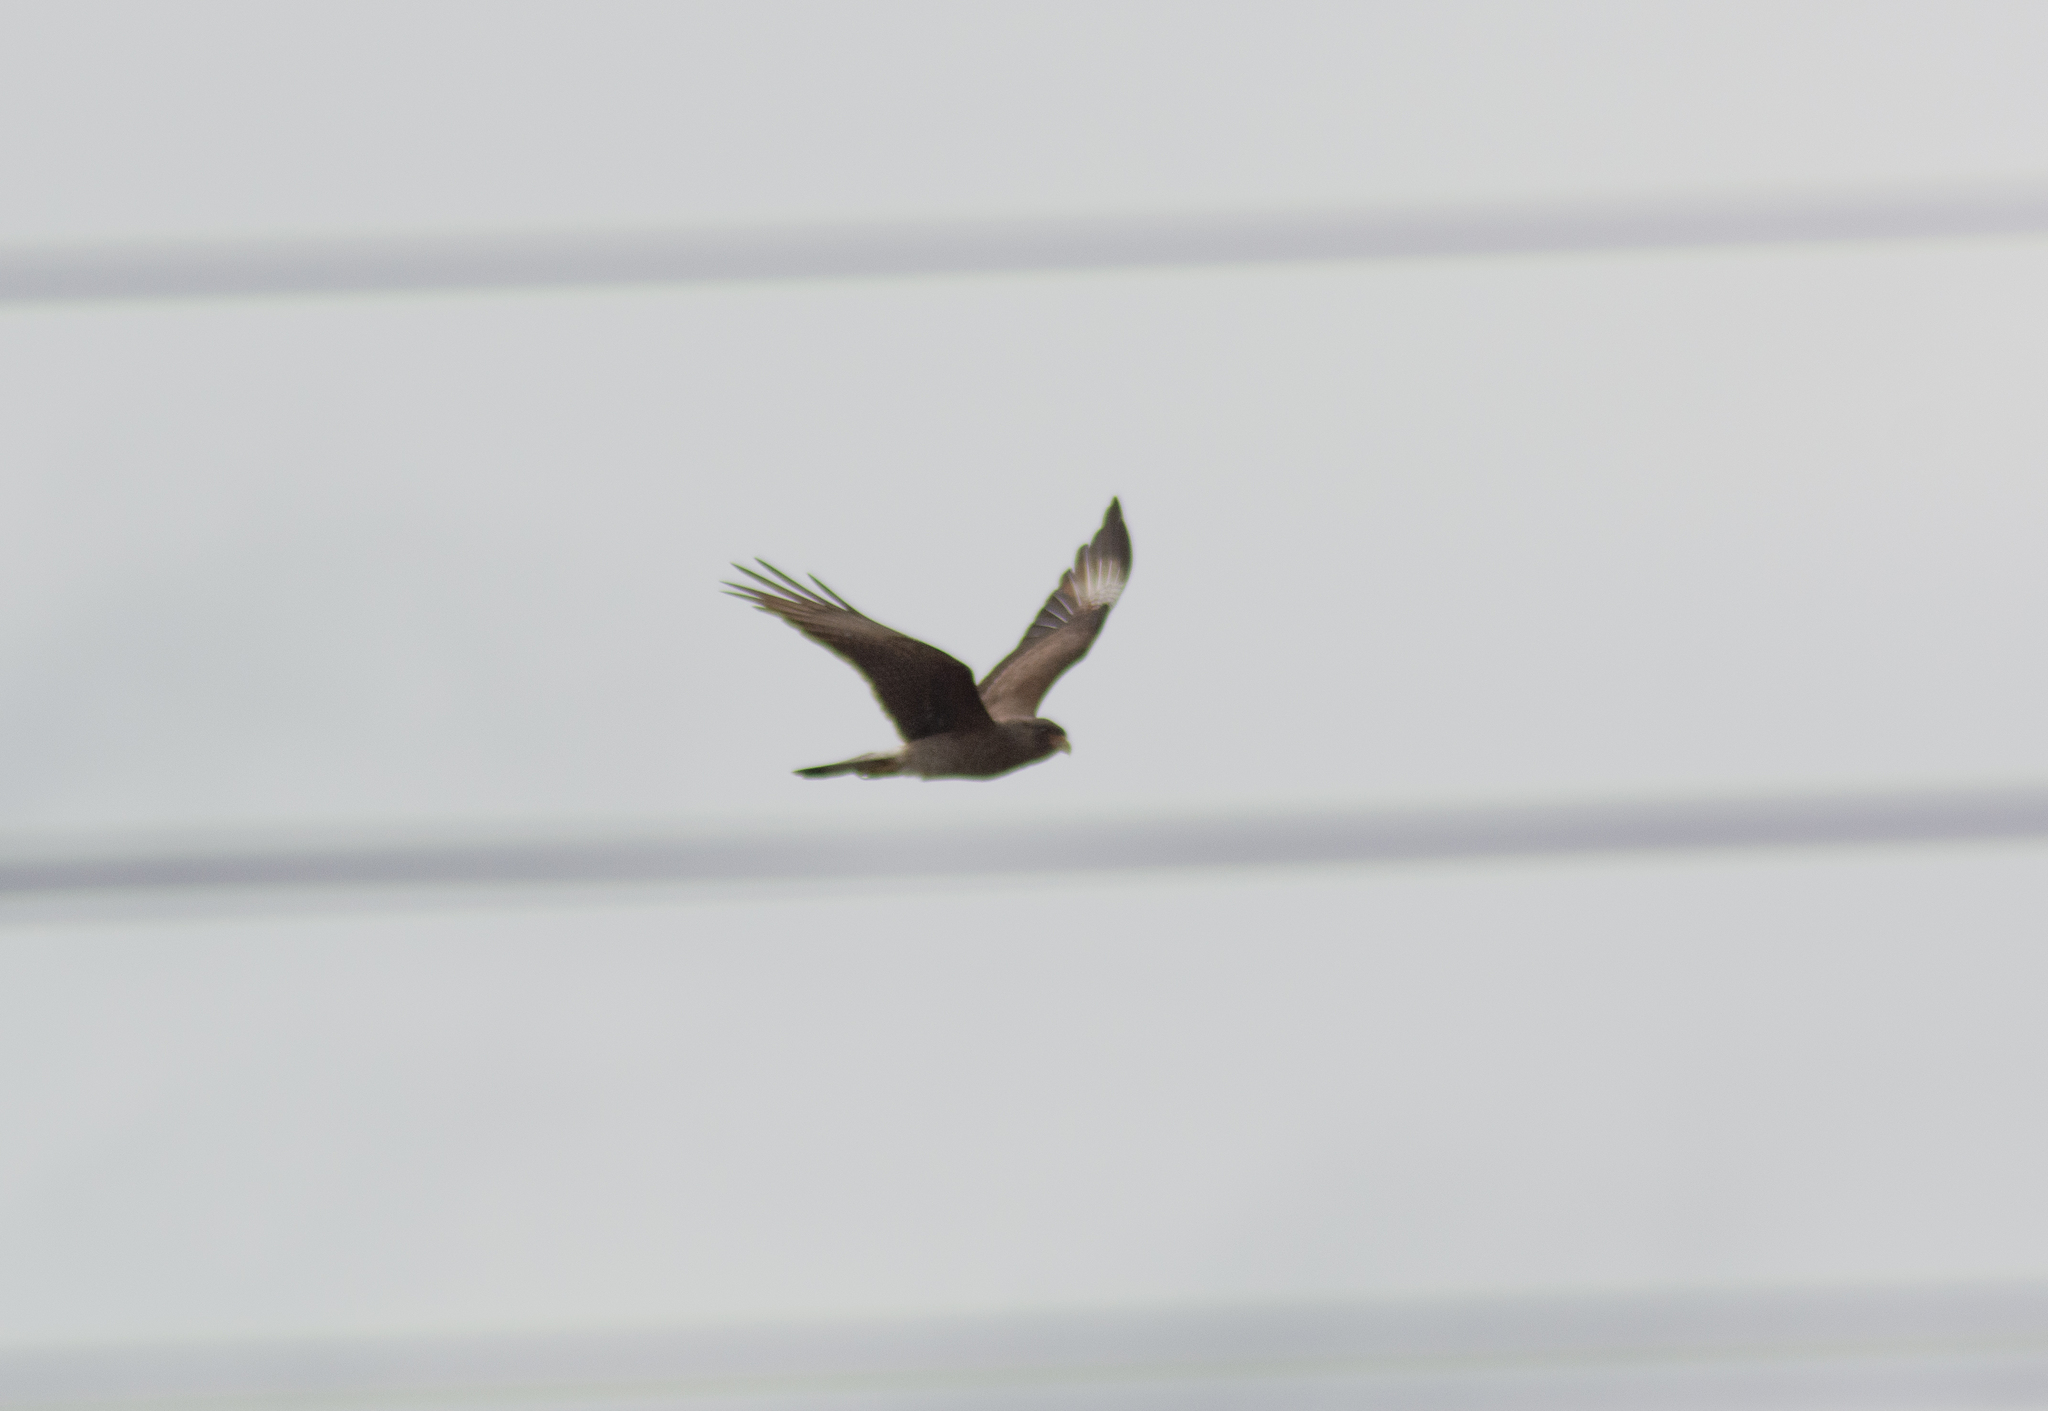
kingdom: Animalia
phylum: Chordata
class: Aves
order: Falconiformes
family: Falconidae
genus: Daptrius
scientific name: Daptrius
